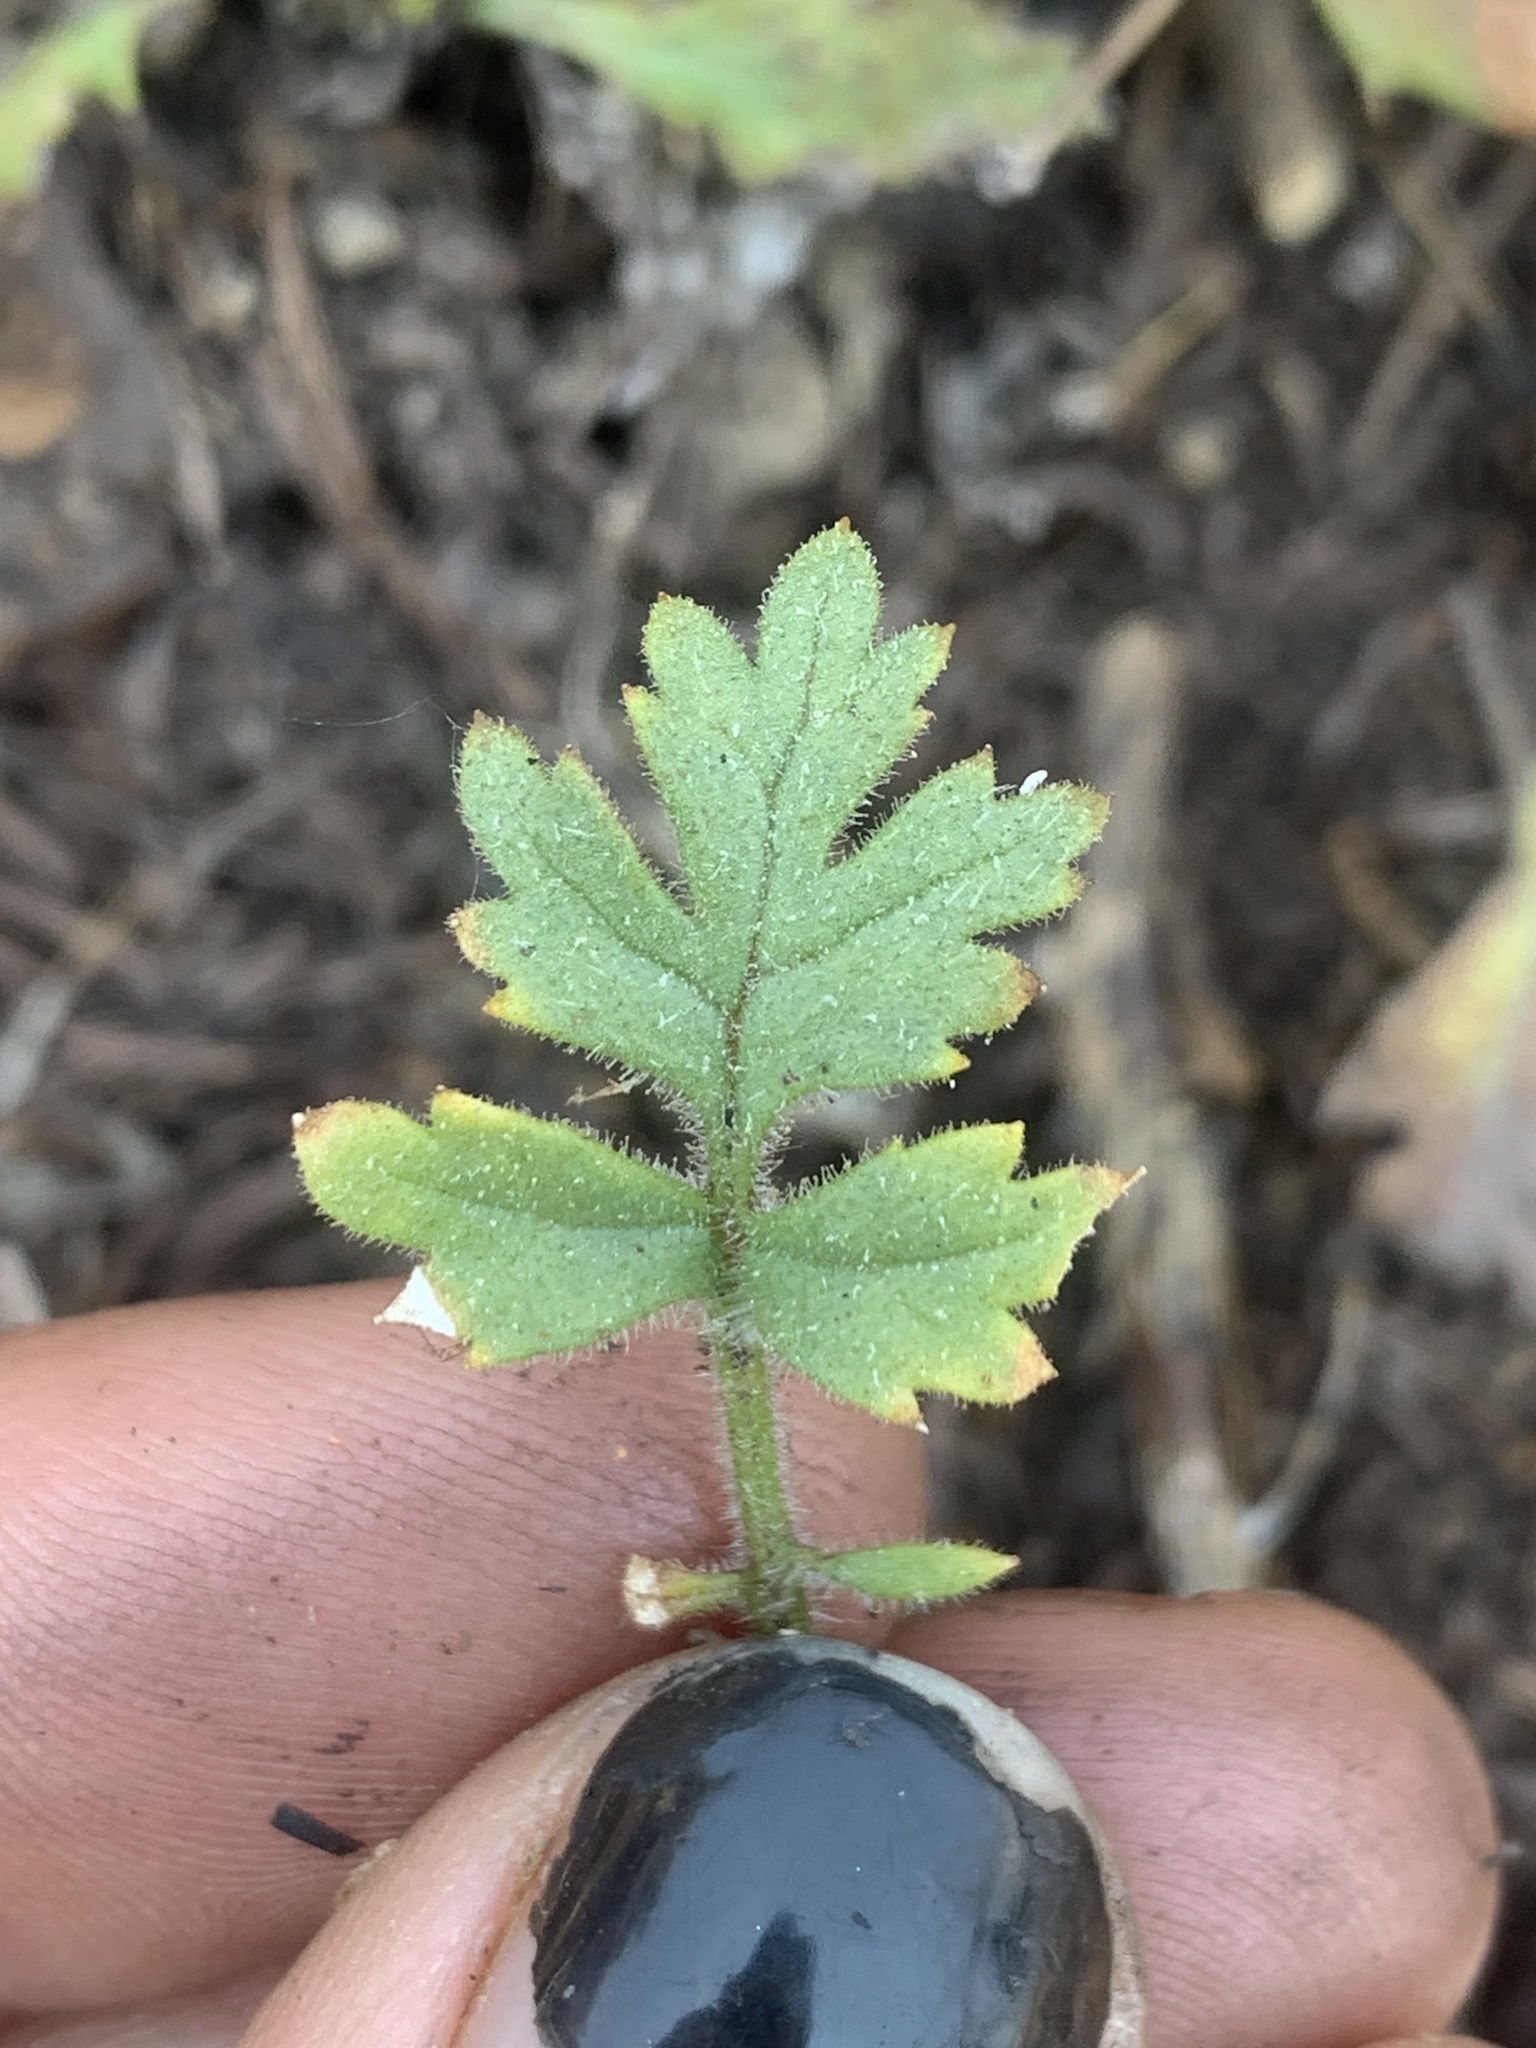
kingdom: Plantae
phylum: Tracheophyta
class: Magnoliopsida
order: Ericales
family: Polemoniaceae
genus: Collomia
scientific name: Collomia heterophylla
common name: Variable-leaved collomia
